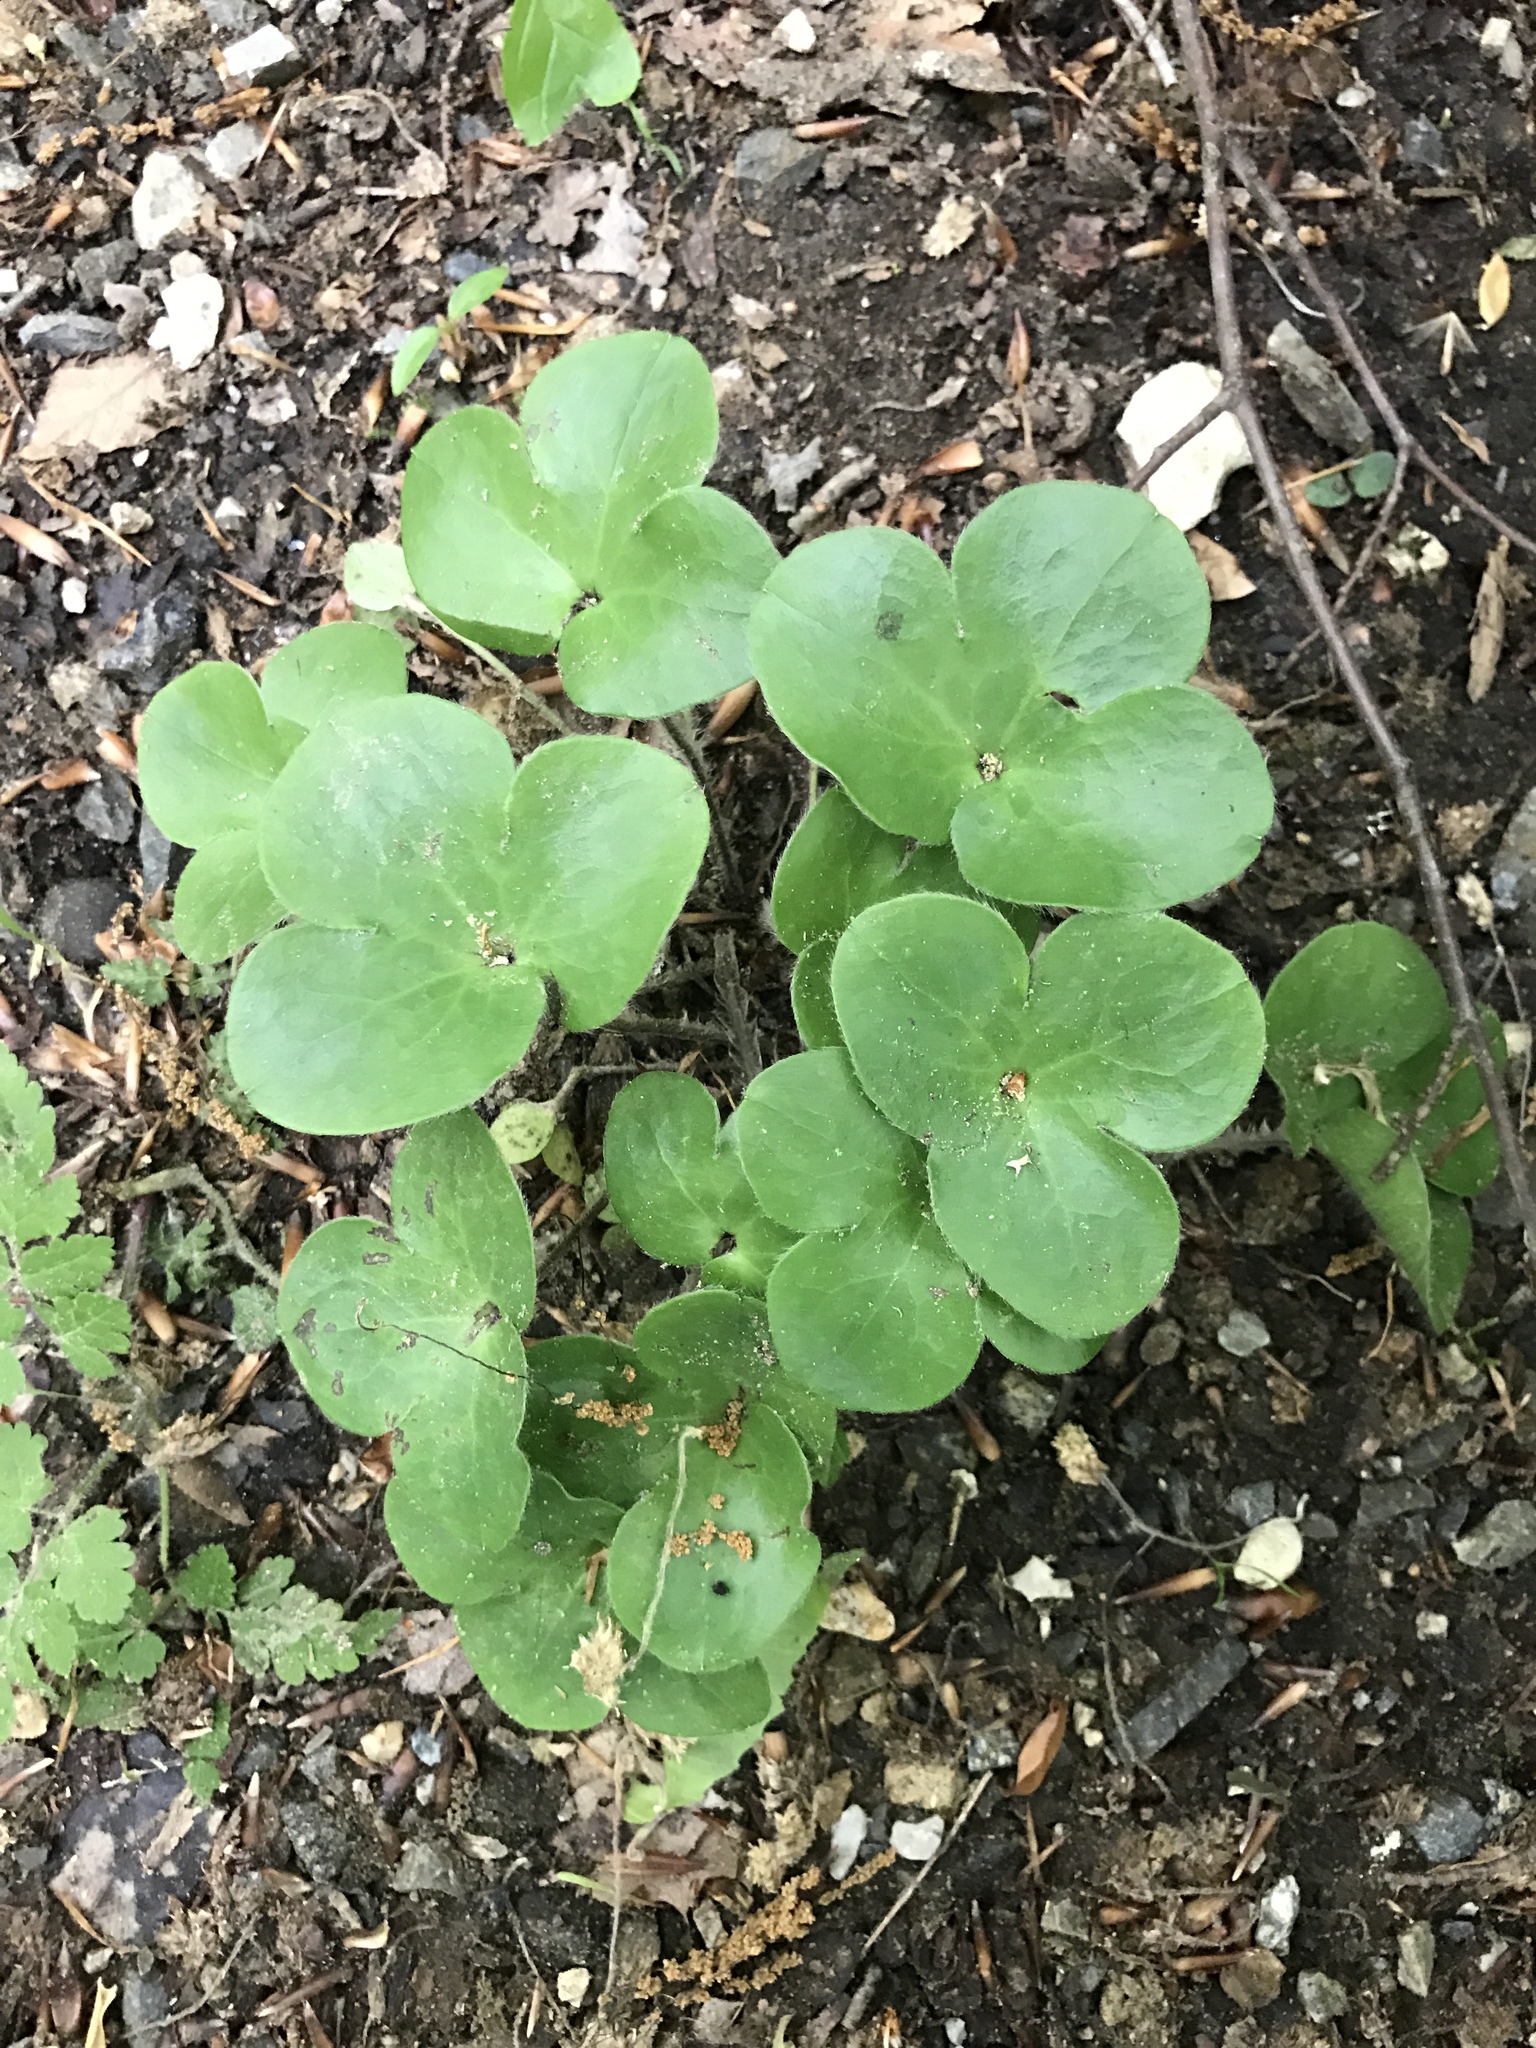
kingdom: Plantae
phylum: Tracheophyta
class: Magnoliopsida
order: Ranunculales
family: Ranunculaceae
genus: Hepatica
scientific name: Hepatica americana
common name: American hepatica
